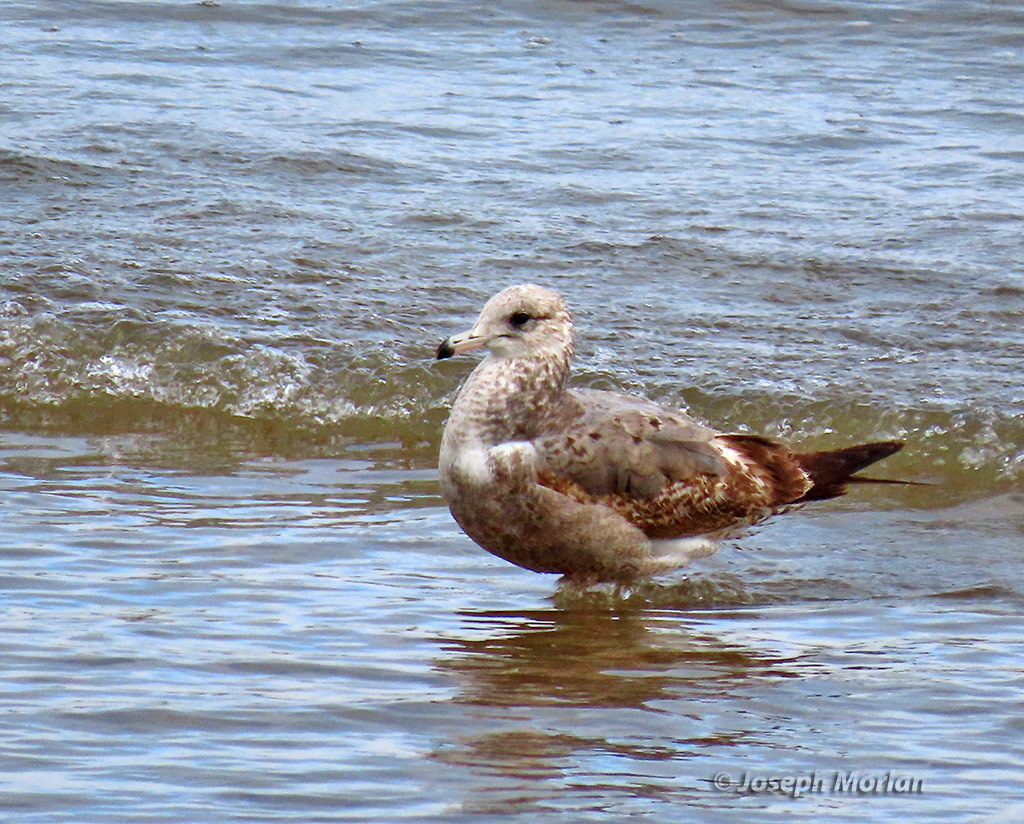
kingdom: Animalia
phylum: Chordata
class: Aves
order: Charadriiformes
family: Laridae
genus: Larus
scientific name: Larus californicus
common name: California gull
